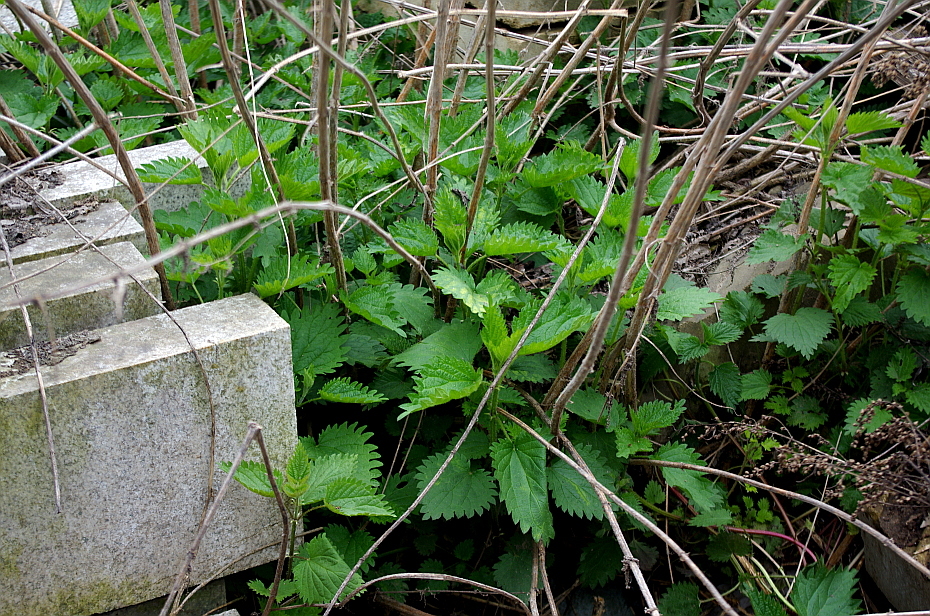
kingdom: Plantae
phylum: Tracheophyta
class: Magnoliopsida
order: Rosales
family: Urticaceae
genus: Urtica
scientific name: Urtica dioica
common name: Common nettle
